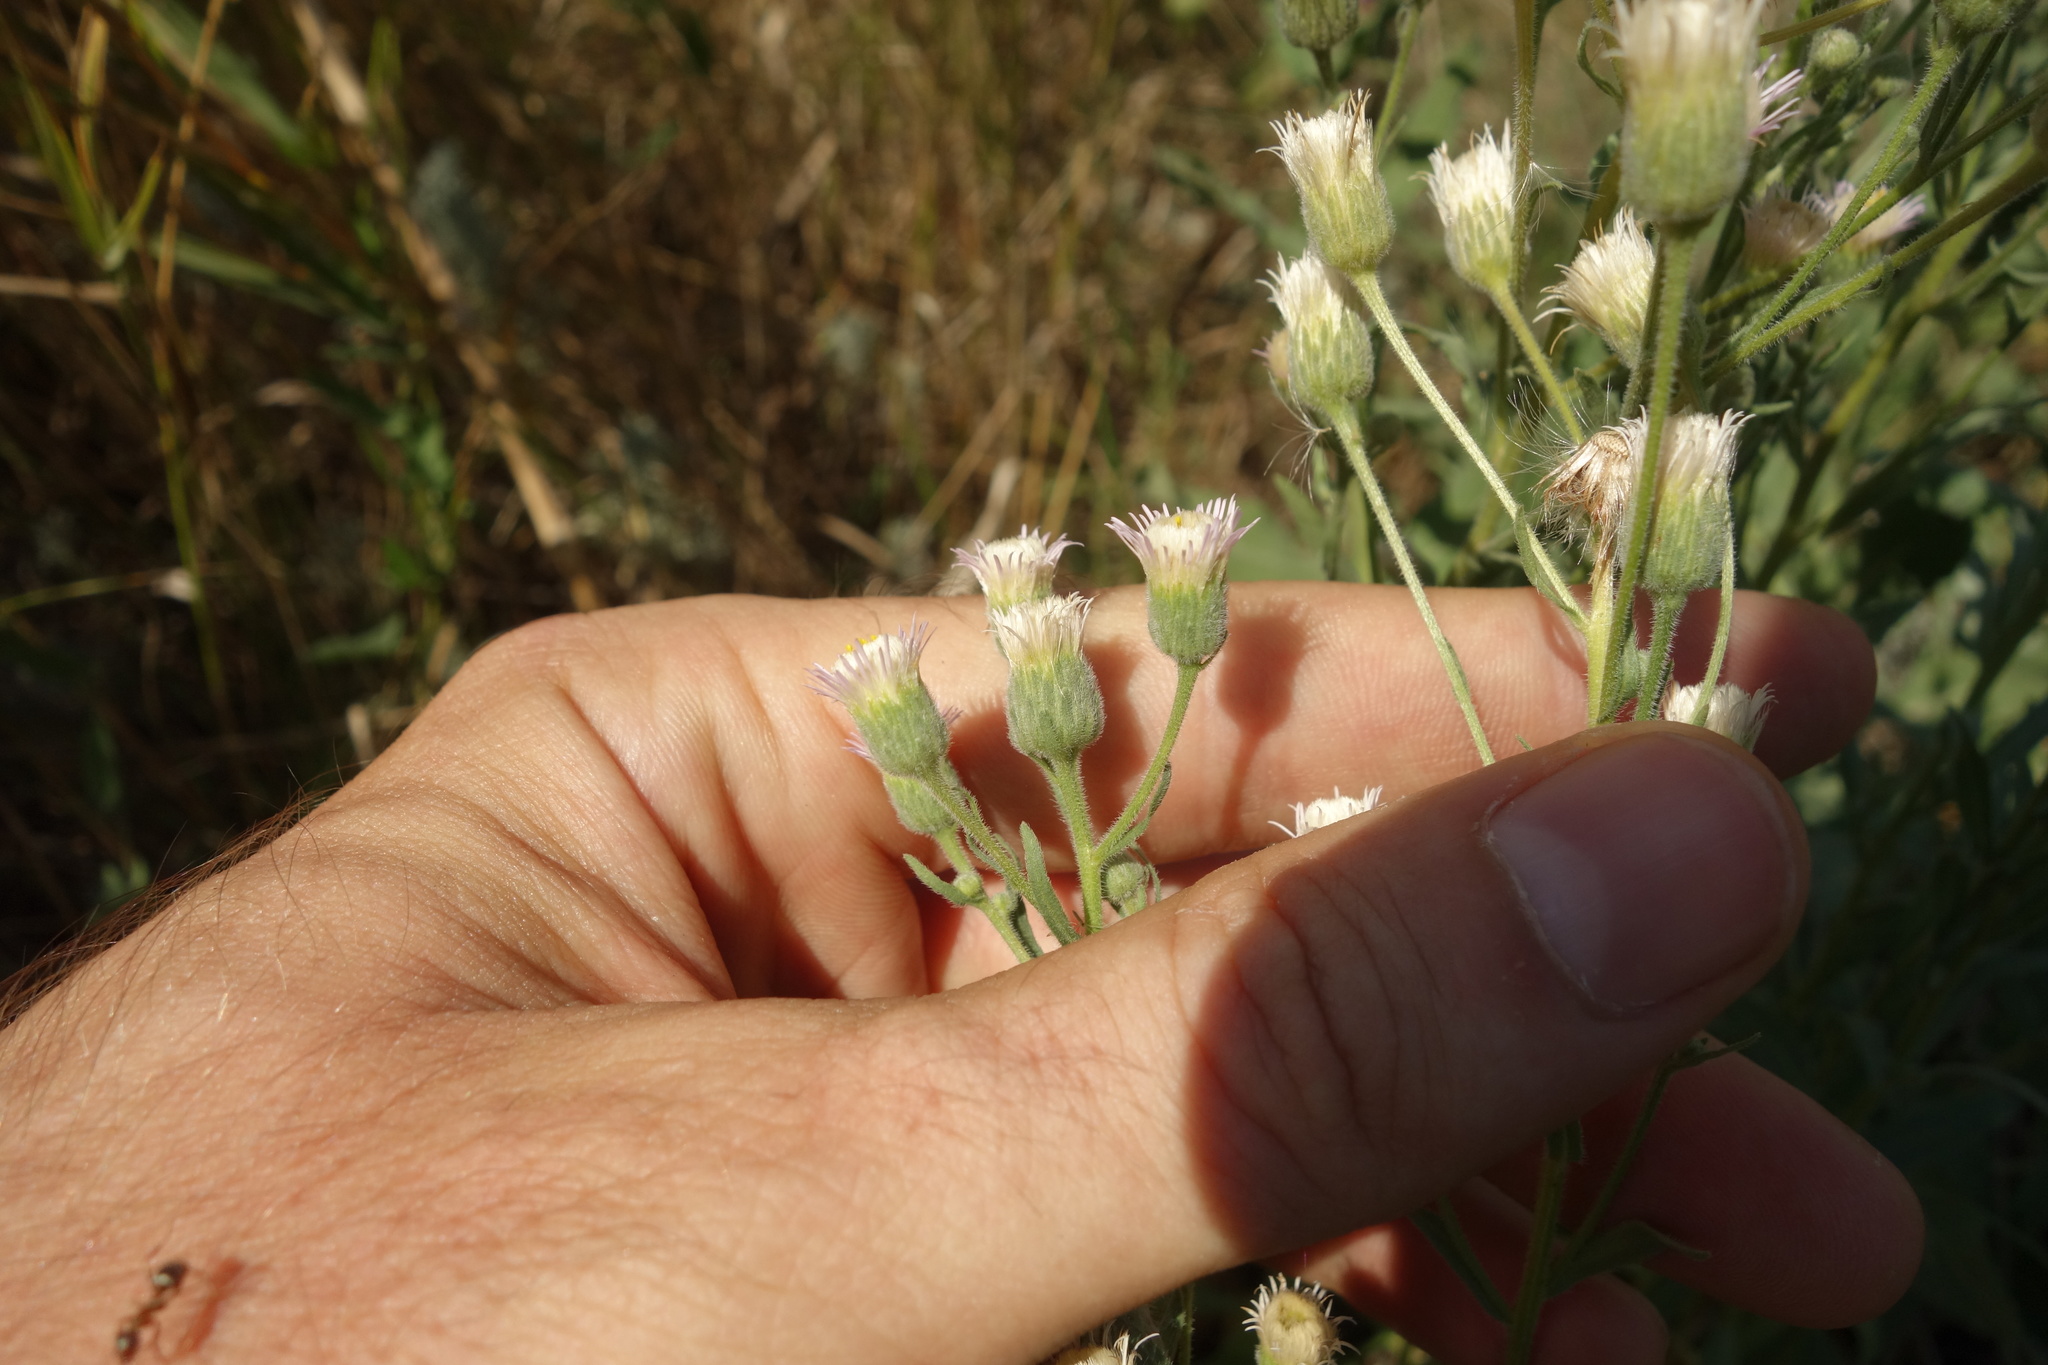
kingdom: Plantae
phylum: Tracheophyta
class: Magnoliopsida
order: Asterales
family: Asteraceae
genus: Erigeron
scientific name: Erigeron acris
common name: Blue fleabane
